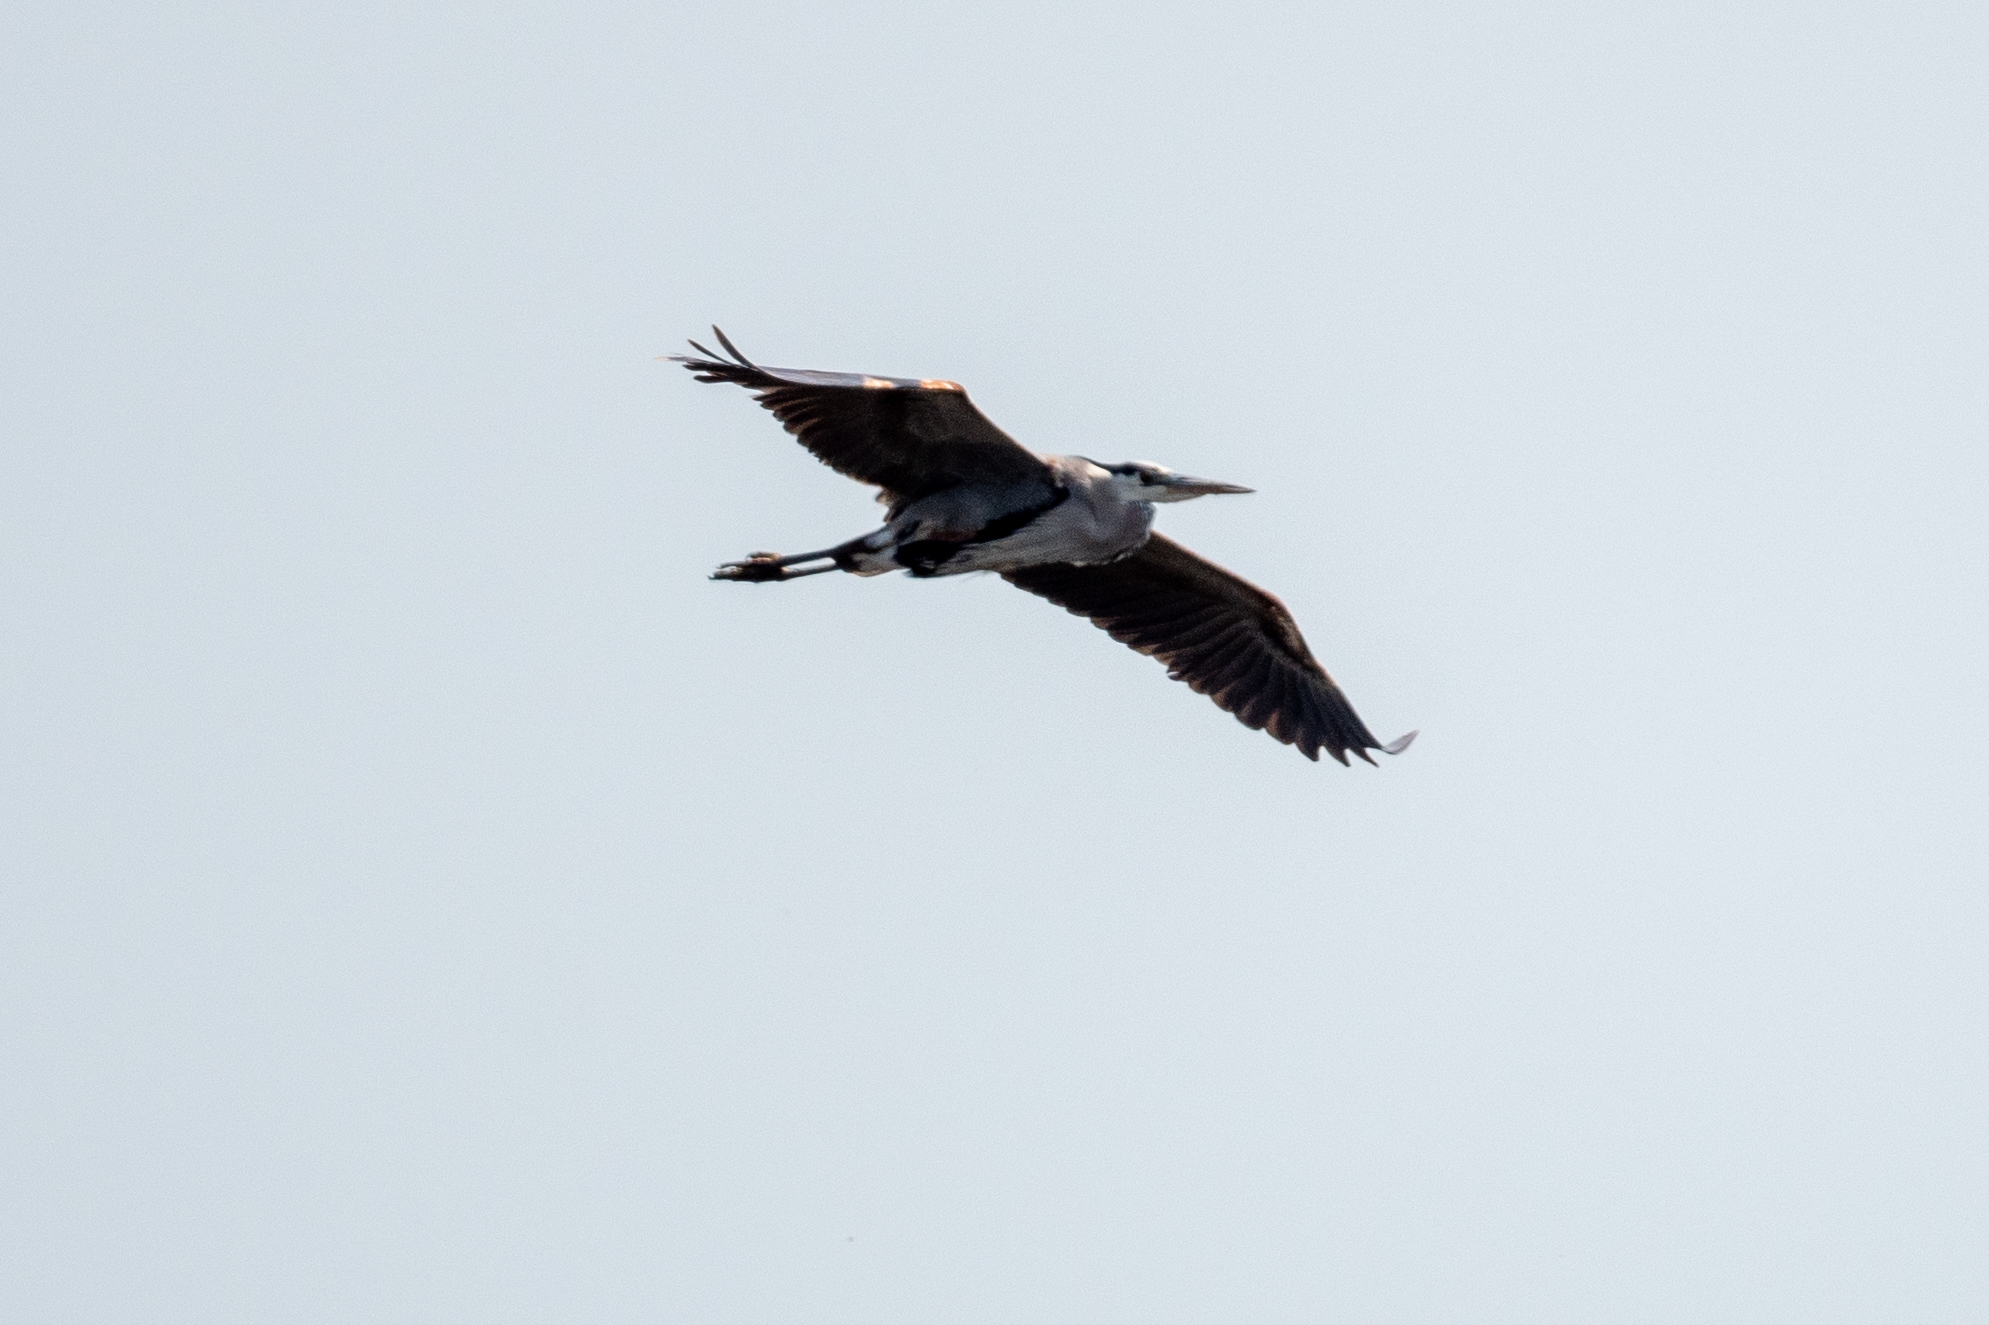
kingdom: Animalia
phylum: Chordata
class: Aves
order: Pelecaniformes
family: Ardeidae
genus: Ardea
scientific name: Ardea herodias
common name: Great blue heron
